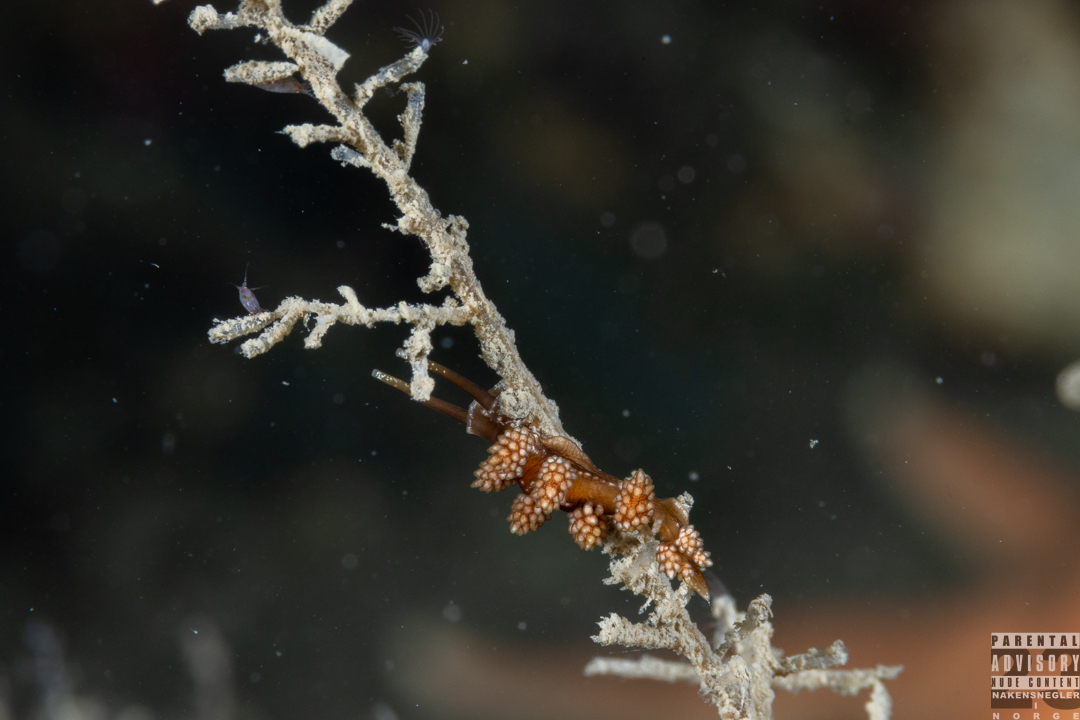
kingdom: Animalia
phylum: Mollusca
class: Gastropoda
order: Nudibranchia
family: Dotidae
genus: Doto
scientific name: Doto fragilis
